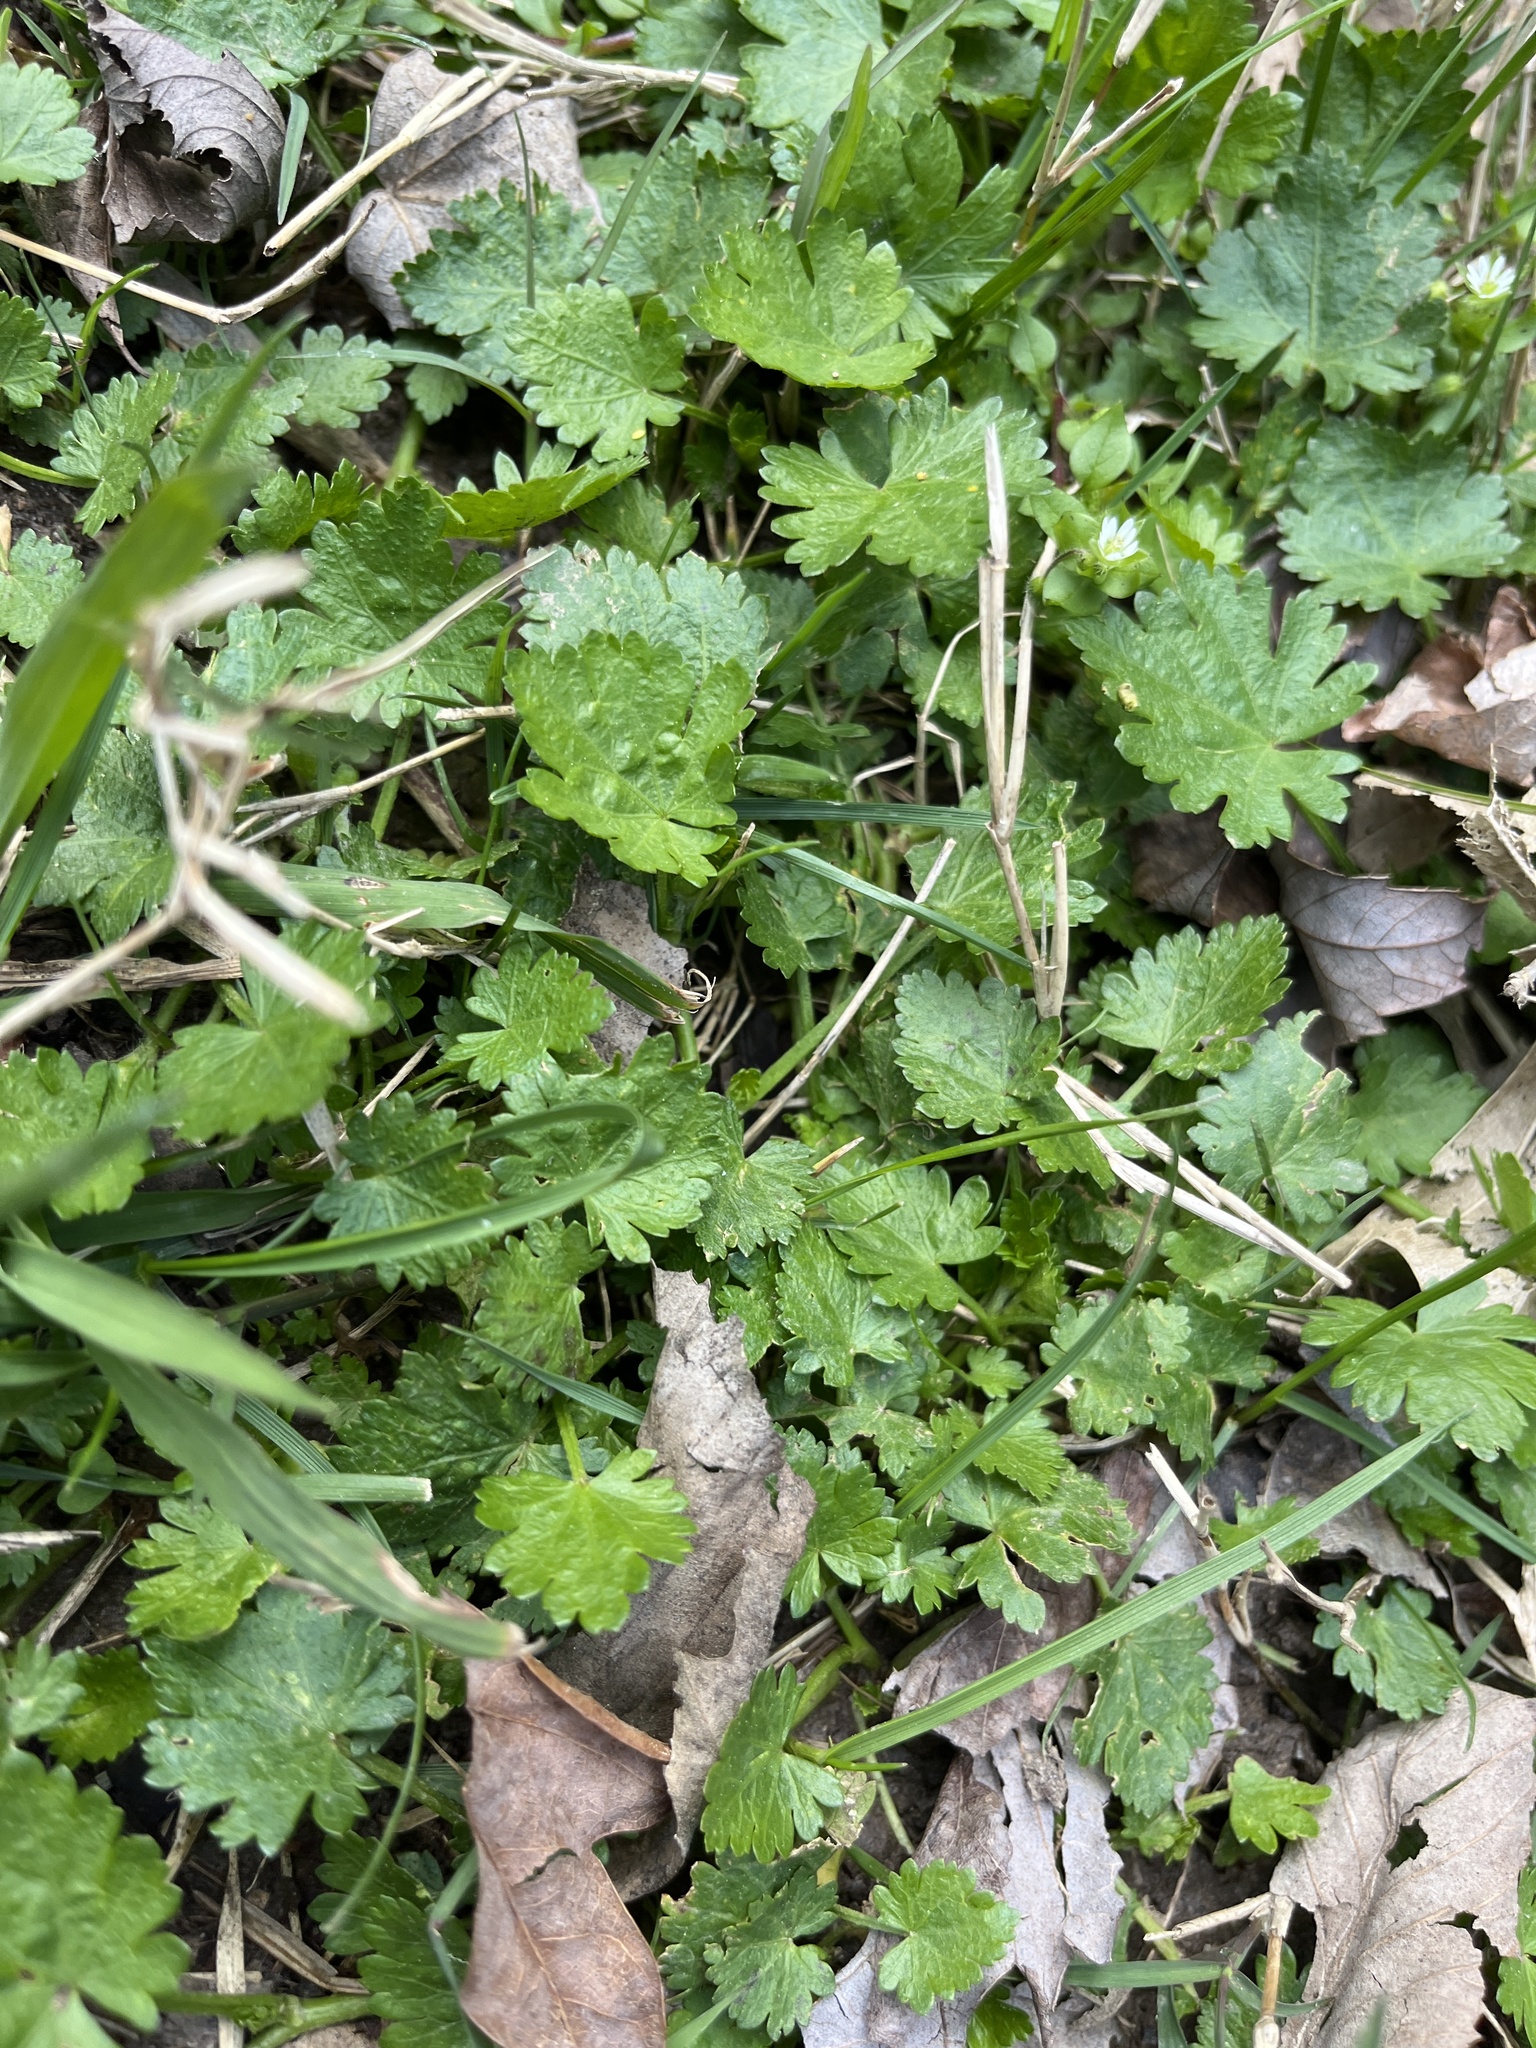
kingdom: Plantae
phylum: Tracheophyta
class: Magnoliopsida
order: Malvales
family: Malvaceae
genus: Modiola
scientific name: Modiola caroliniana
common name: Carolina bristlemallow
